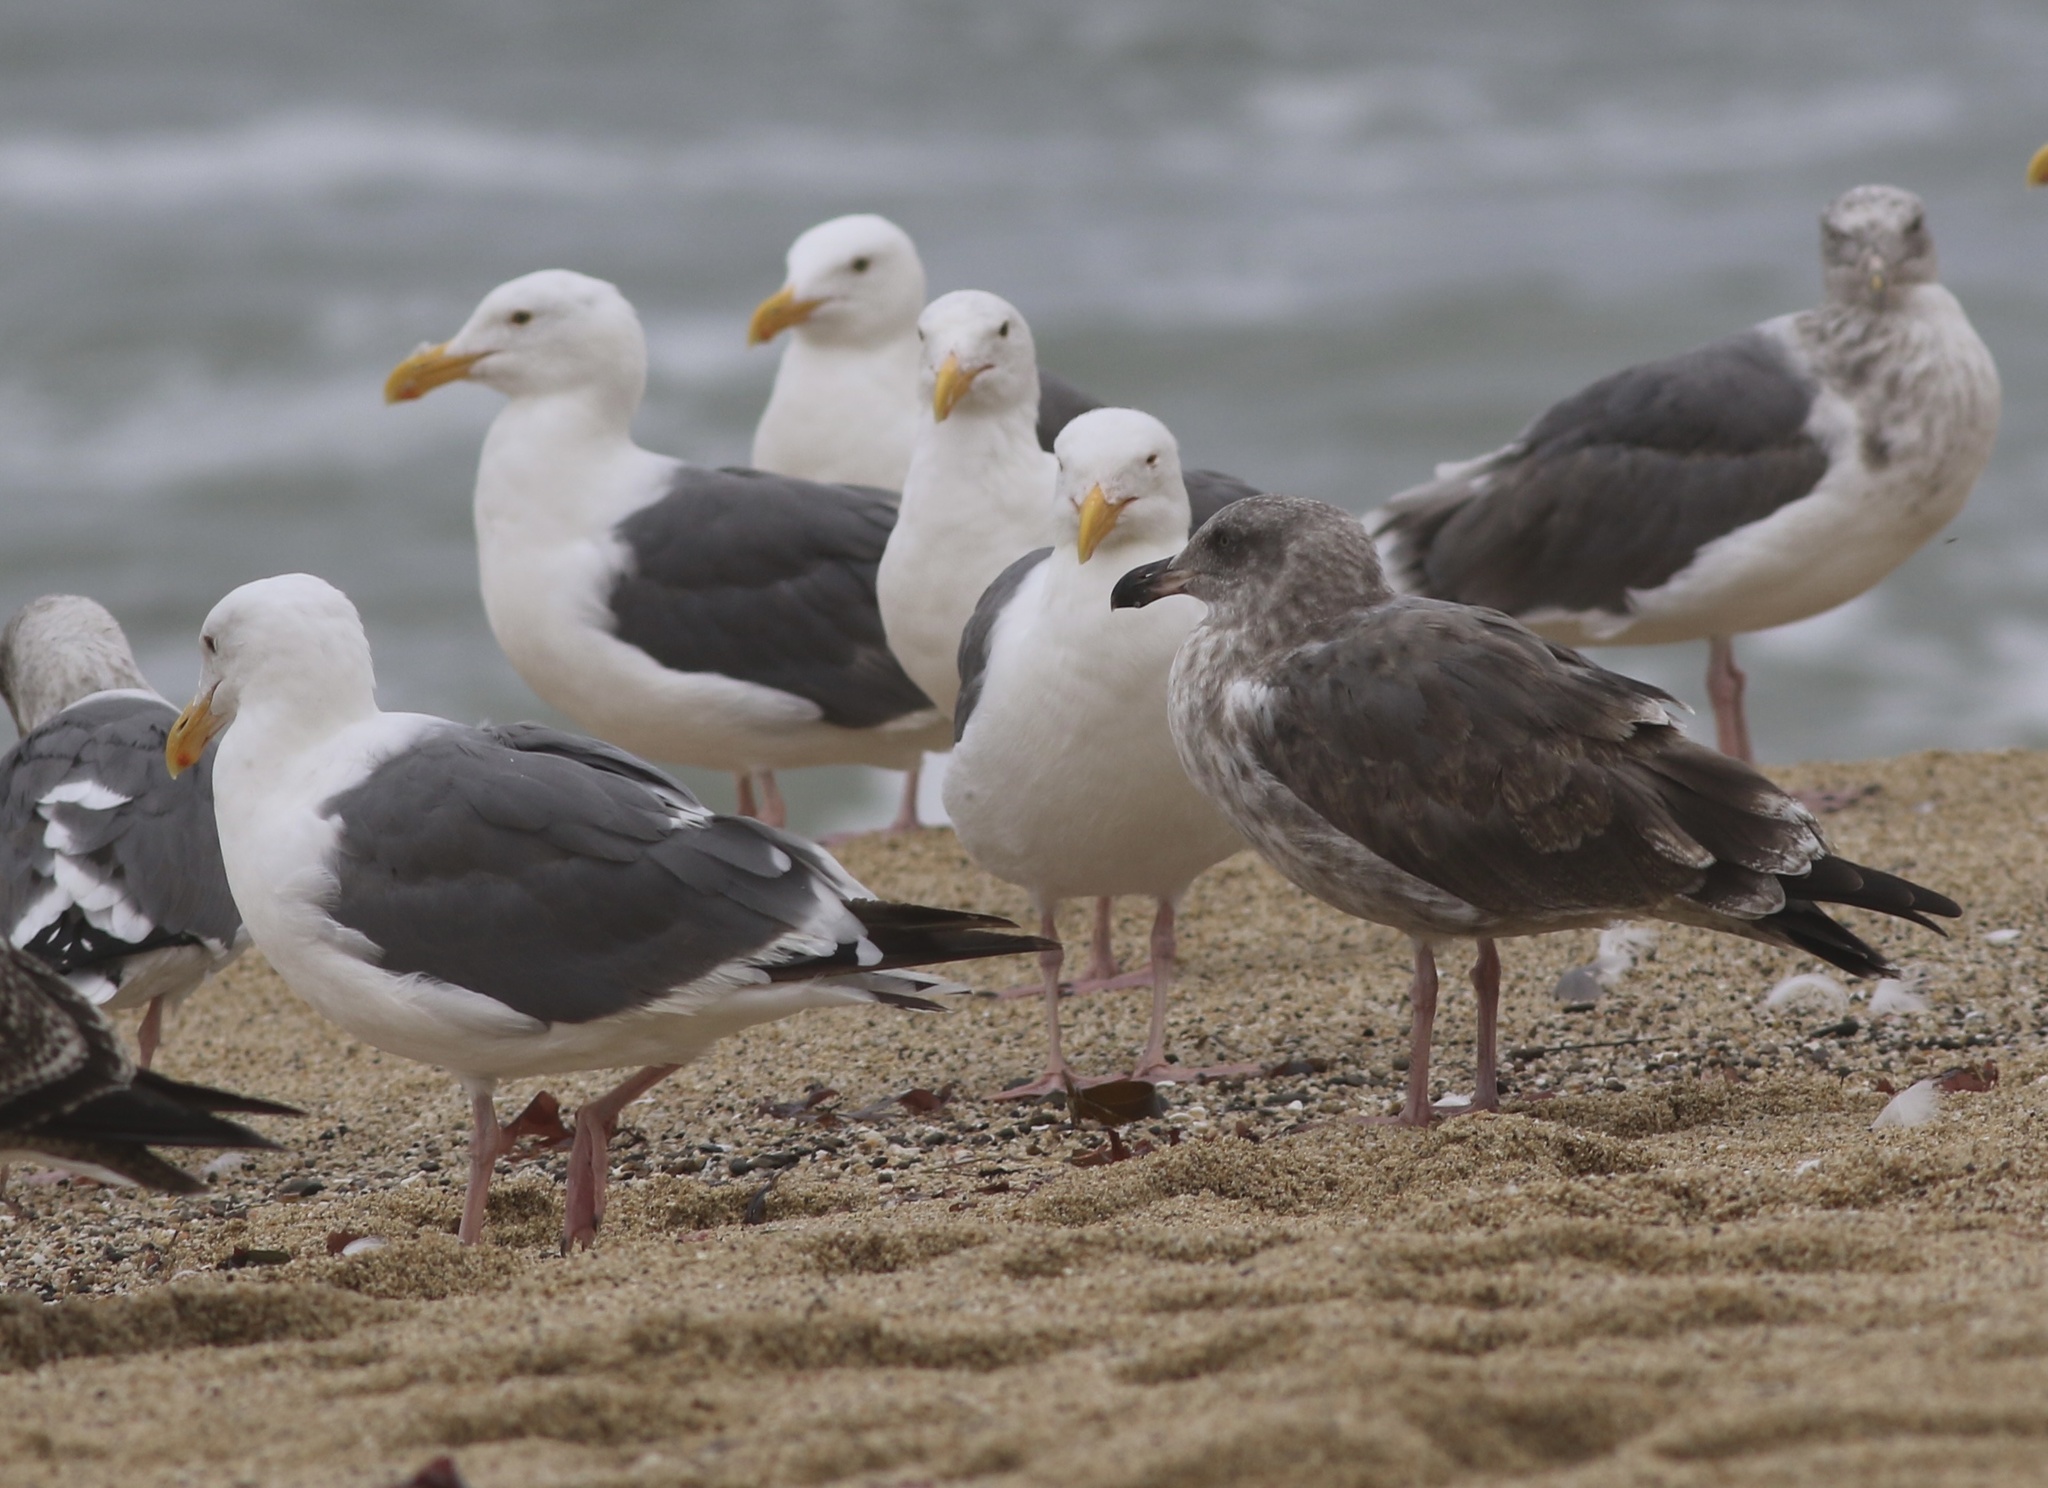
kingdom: Animalia
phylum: Chordata
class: Aves
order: Charadriiformes
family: Laridae
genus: Larus
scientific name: Larus occidentalis
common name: Western gull
